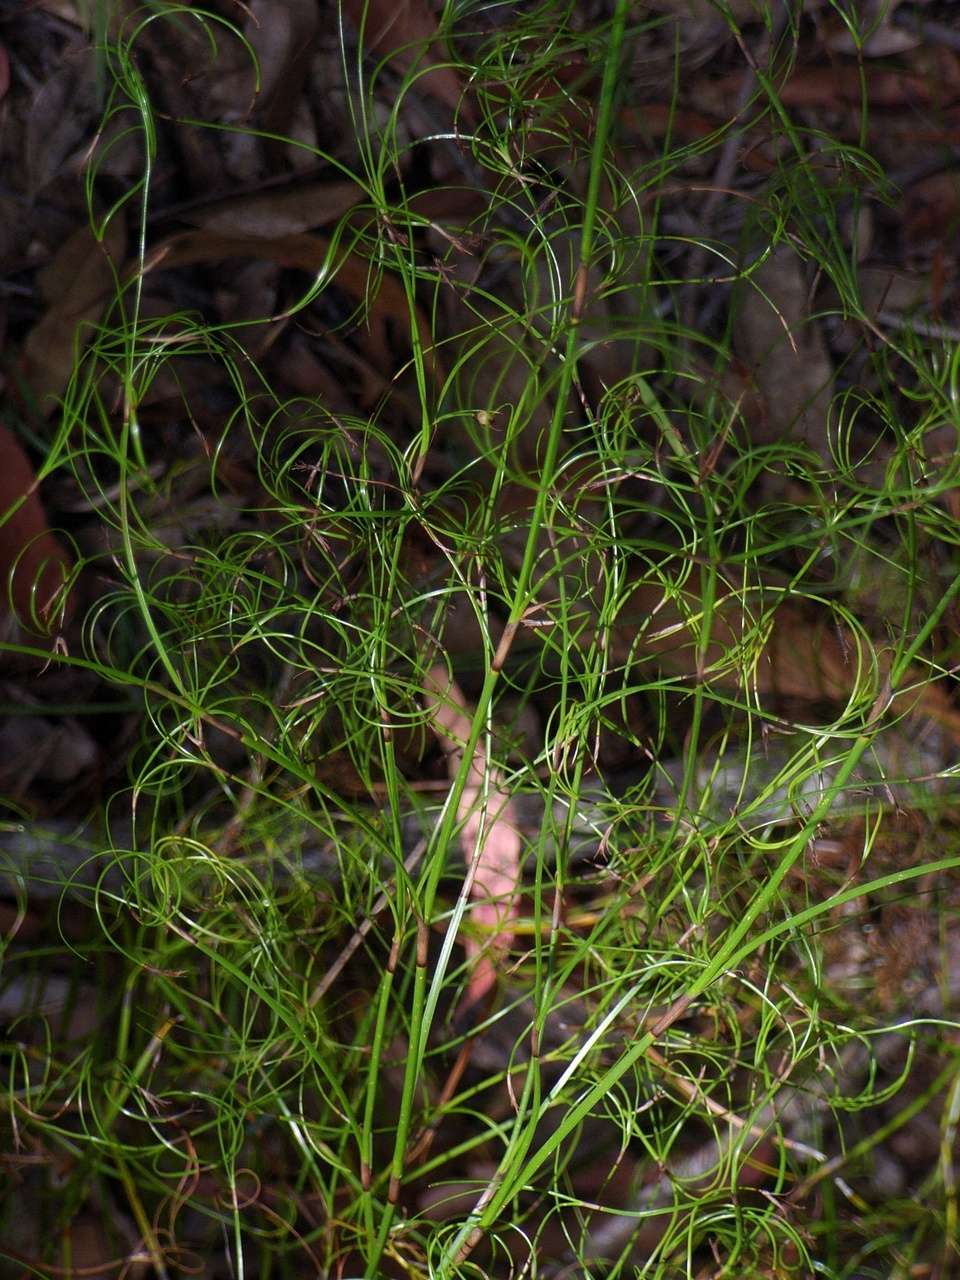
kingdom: Plantae
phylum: Tracheophyta
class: Liliopsida
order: Poales
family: Cyperaceae
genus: Caustis
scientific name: Caustis flexuosa
